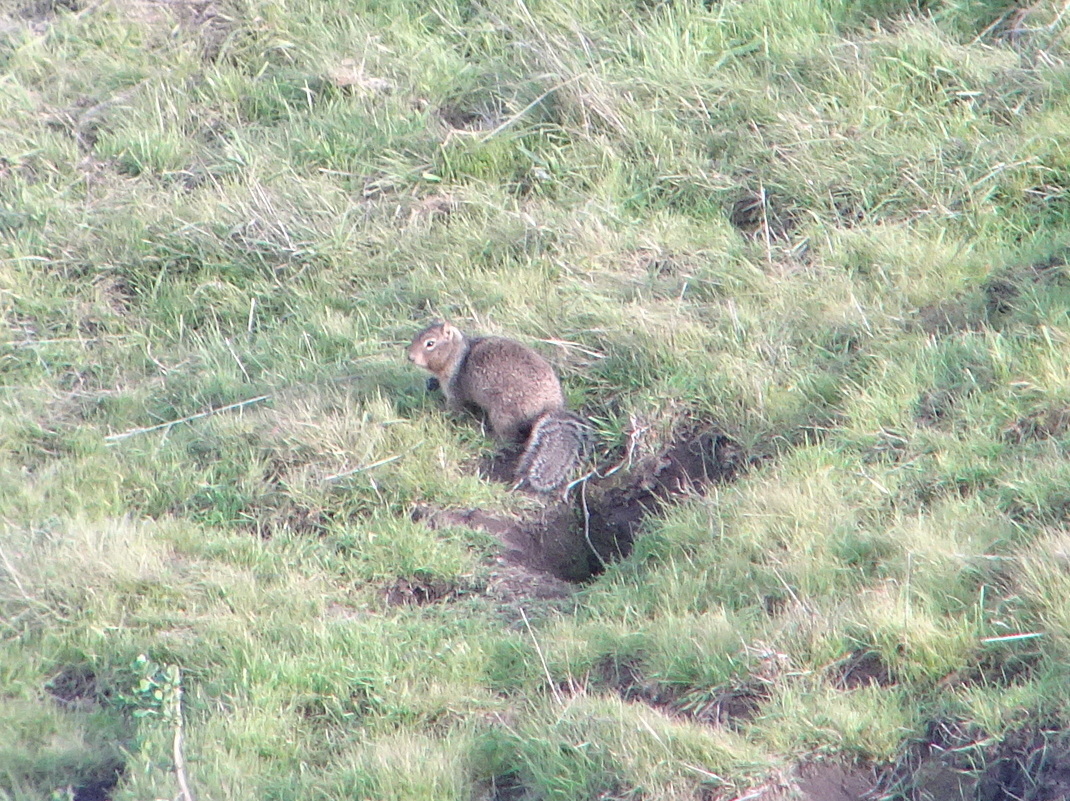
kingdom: Animalia
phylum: Chordata
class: Mammalia
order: Rodentia
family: Sciuridae
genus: Otospermophilus
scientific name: Otospermophilus beecheyi
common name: California ground squirrel
